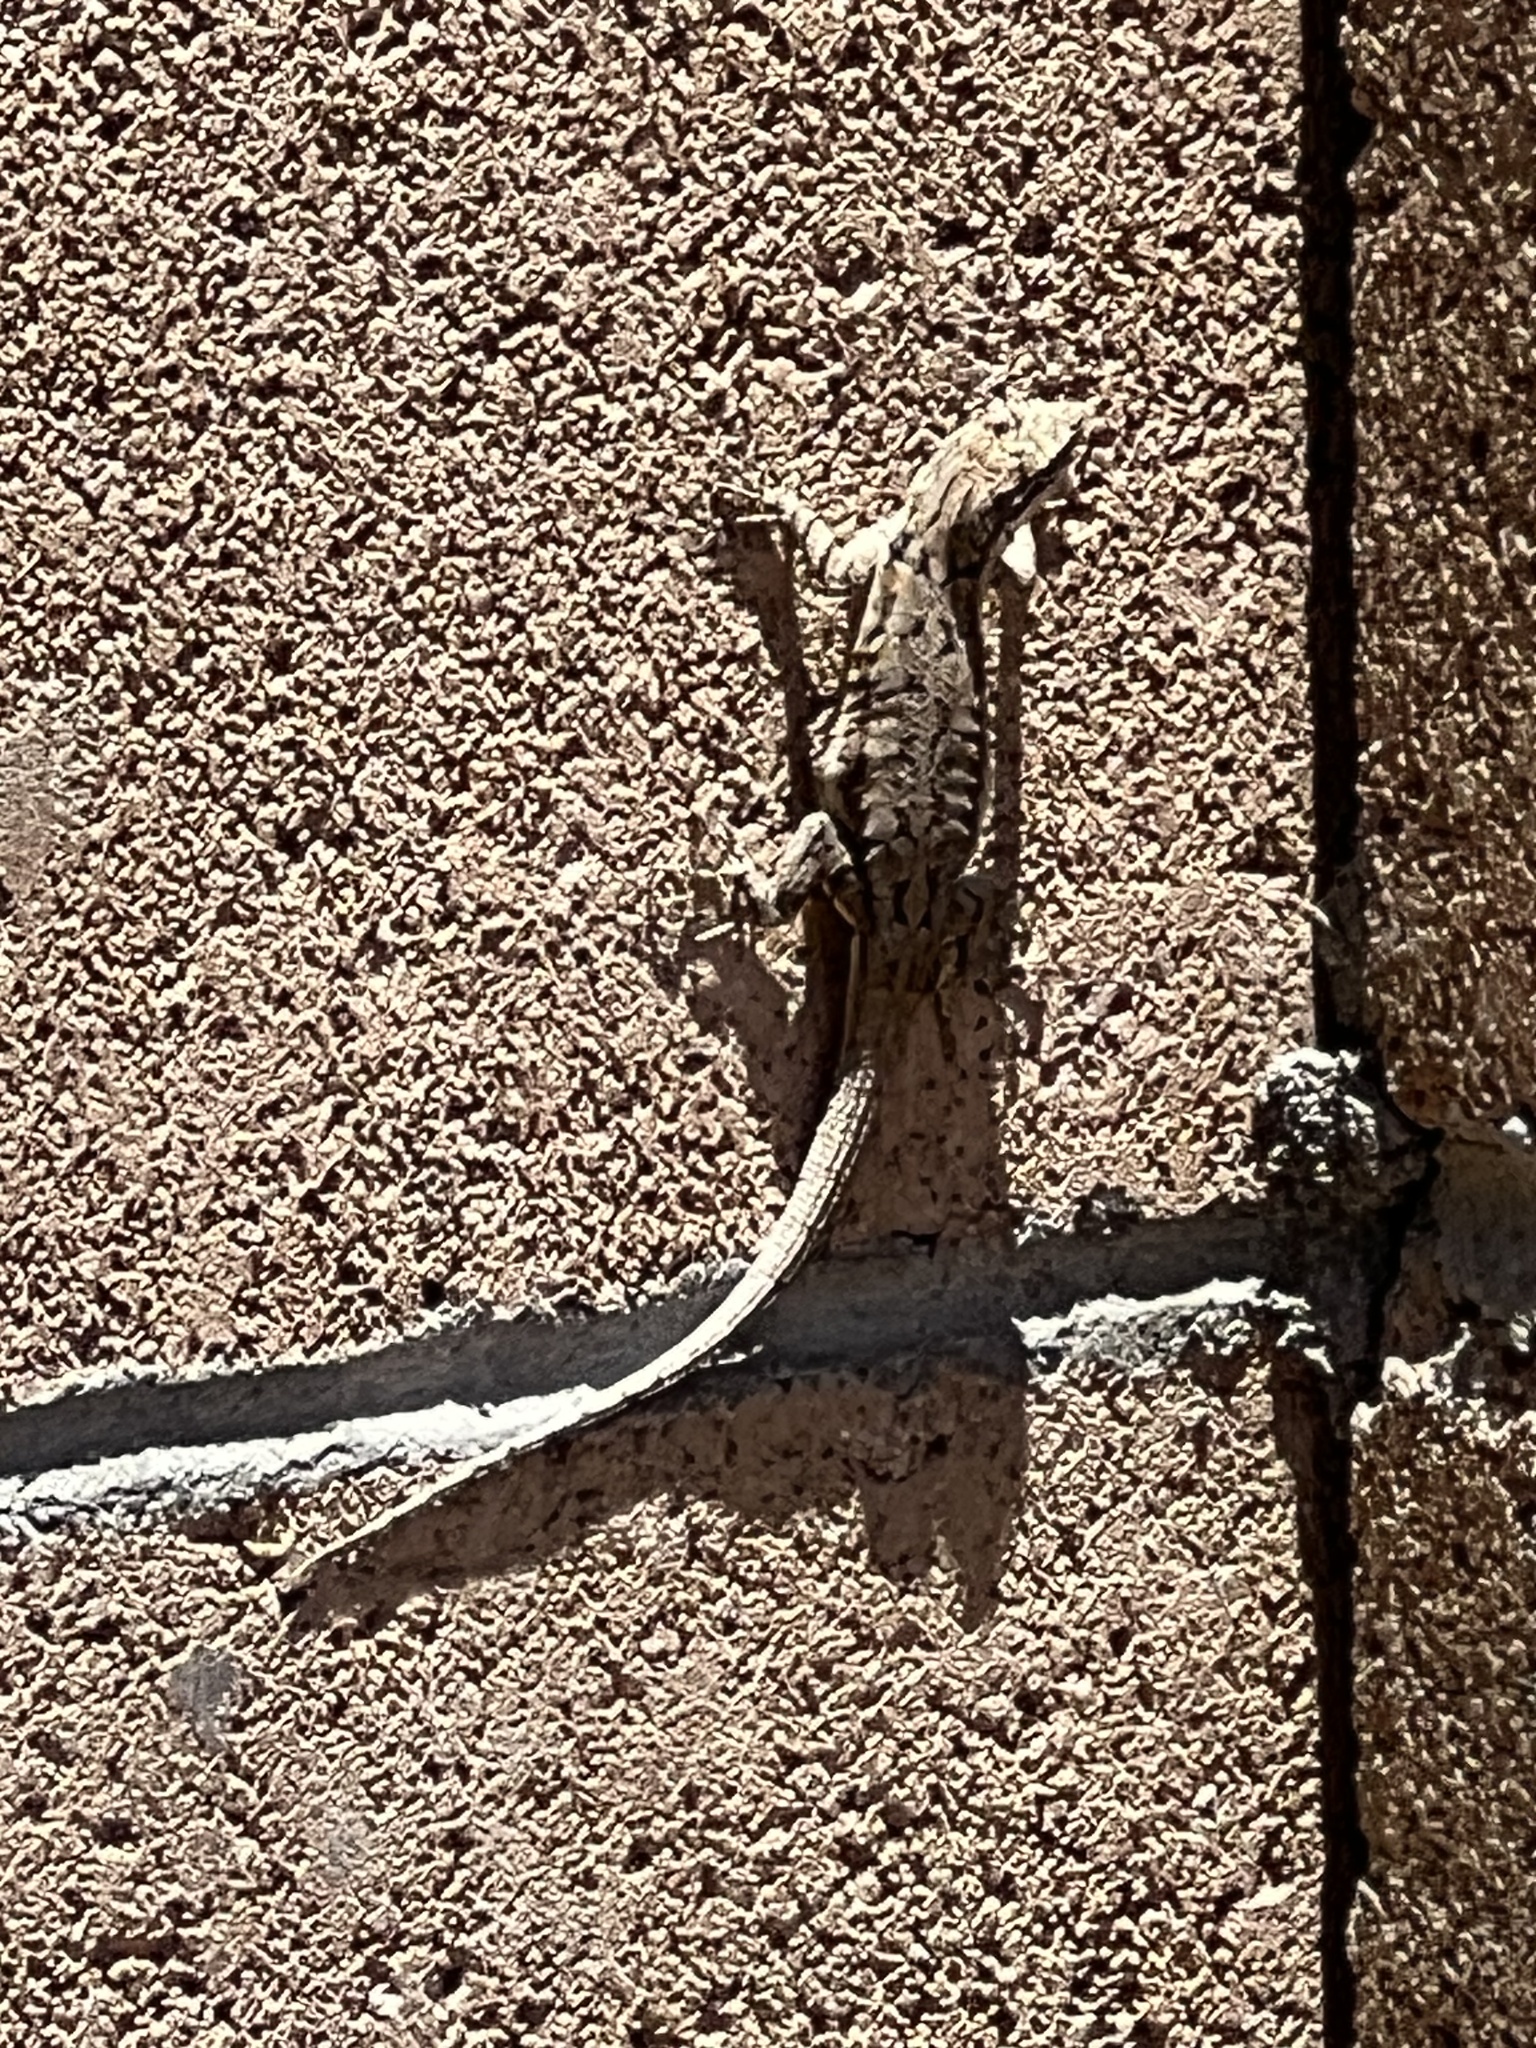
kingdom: Animalia
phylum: Chordata
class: Squamata
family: Phrynosomatidae
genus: Urosaurus
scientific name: Urosaurus ornatus
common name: Ornate tree lizard
